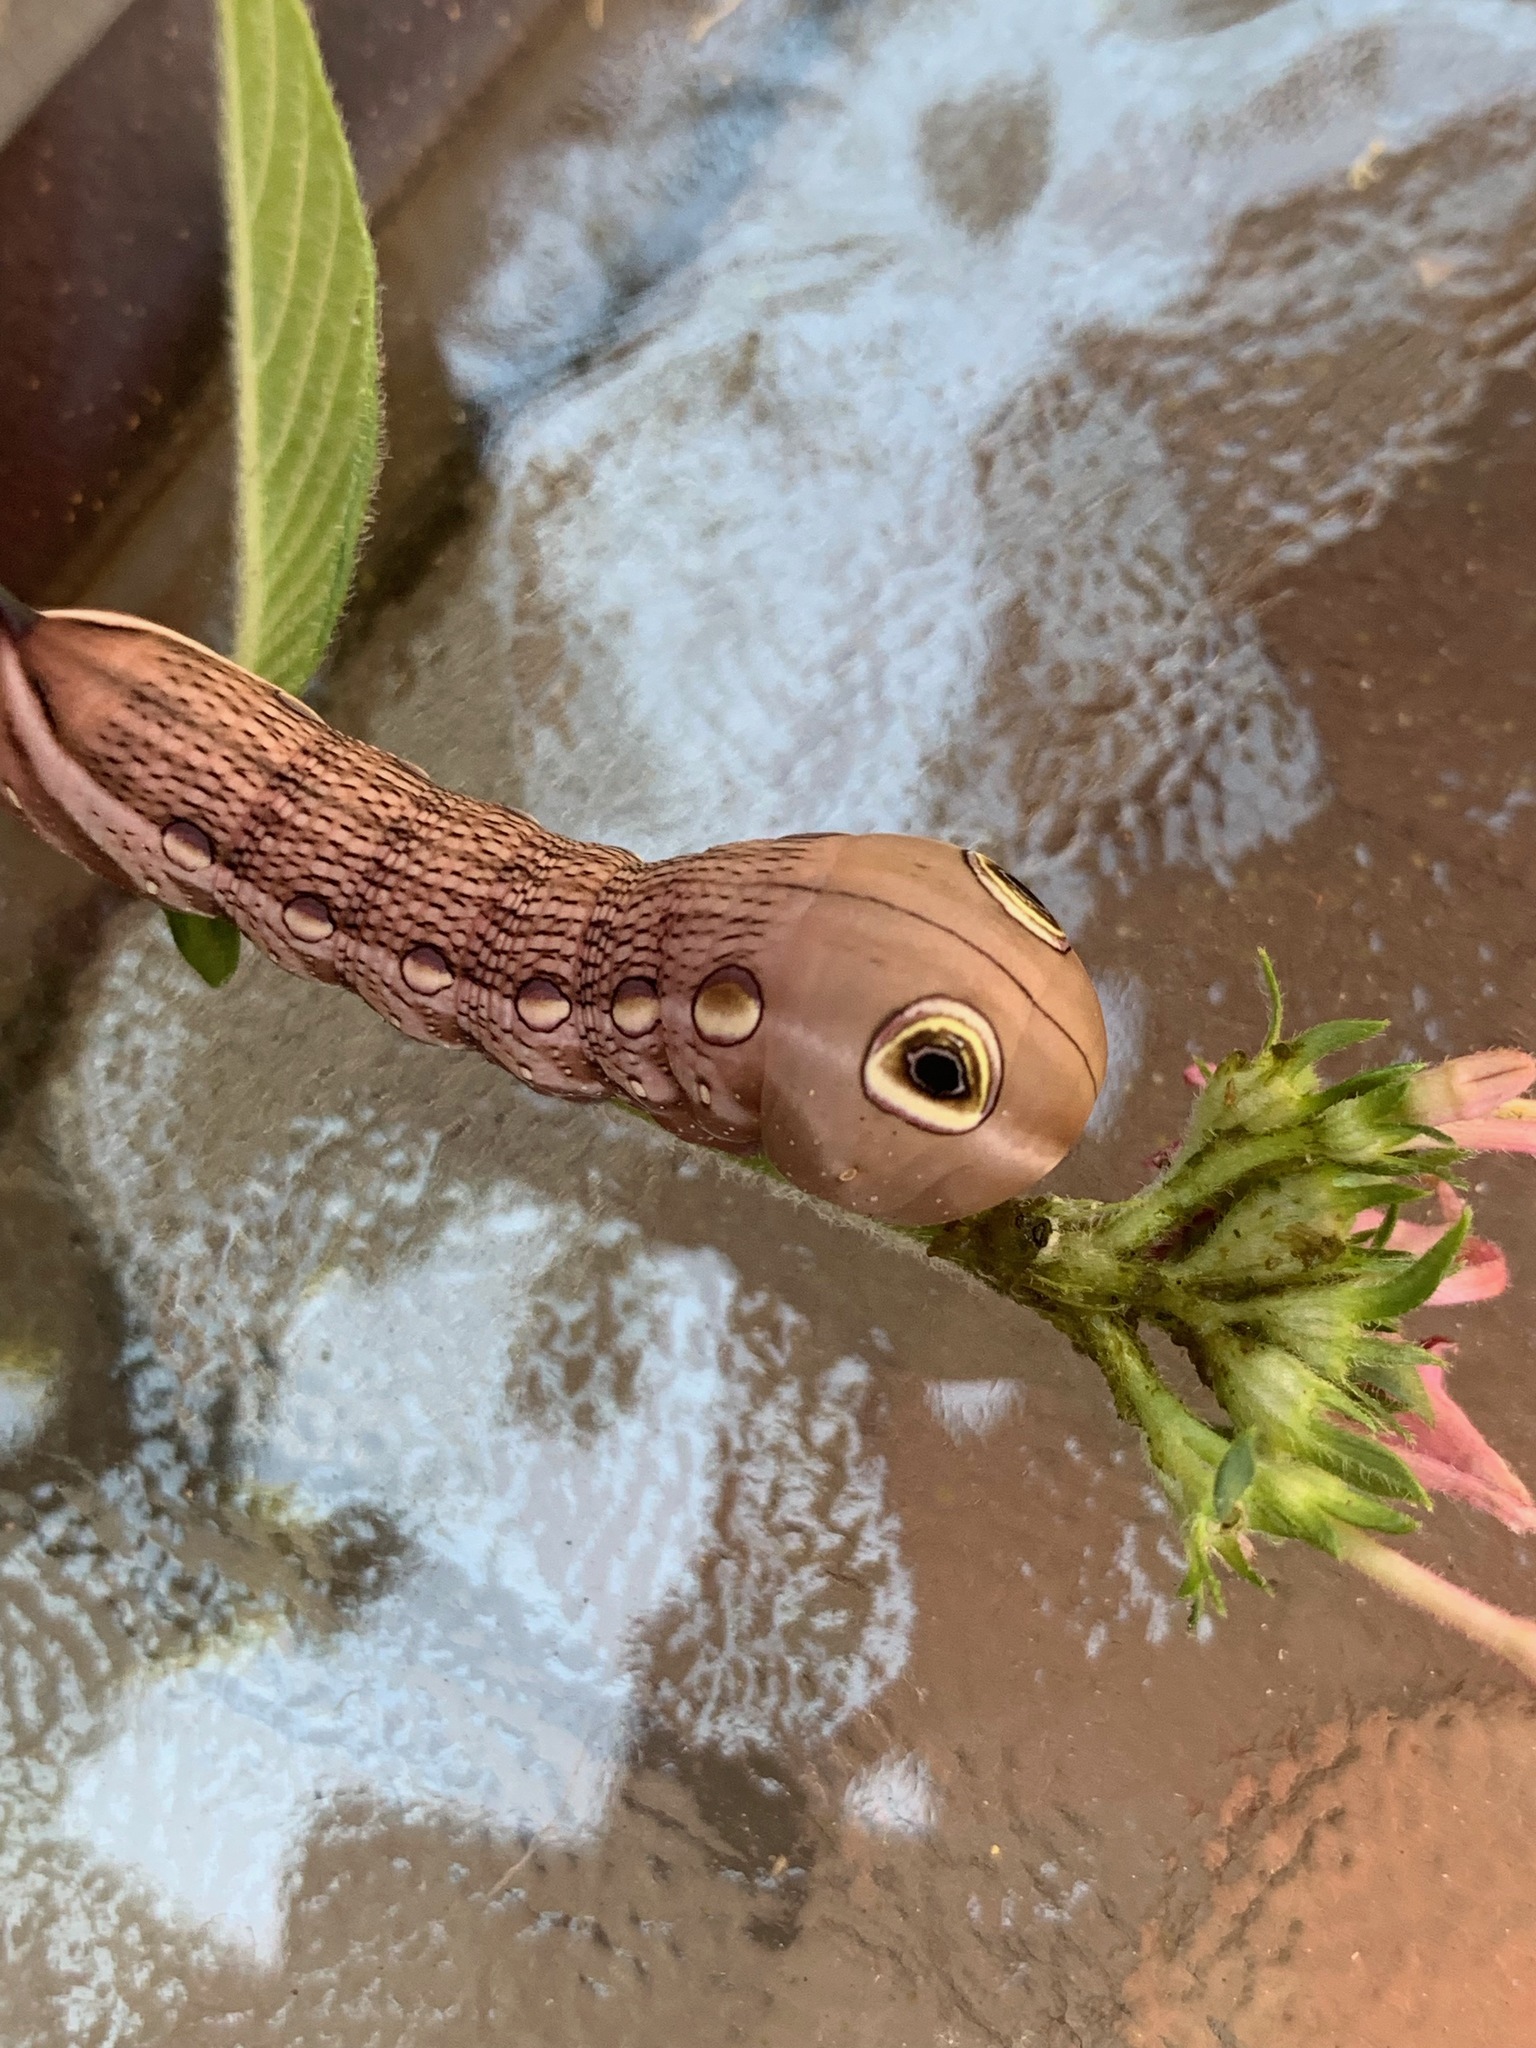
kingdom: Animalia
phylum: Arthropoda
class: Insecta
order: Lepidoptera
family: Sphingidae
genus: Xylophanes
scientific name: Xylophanes tersa
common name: Tersa sphinx
